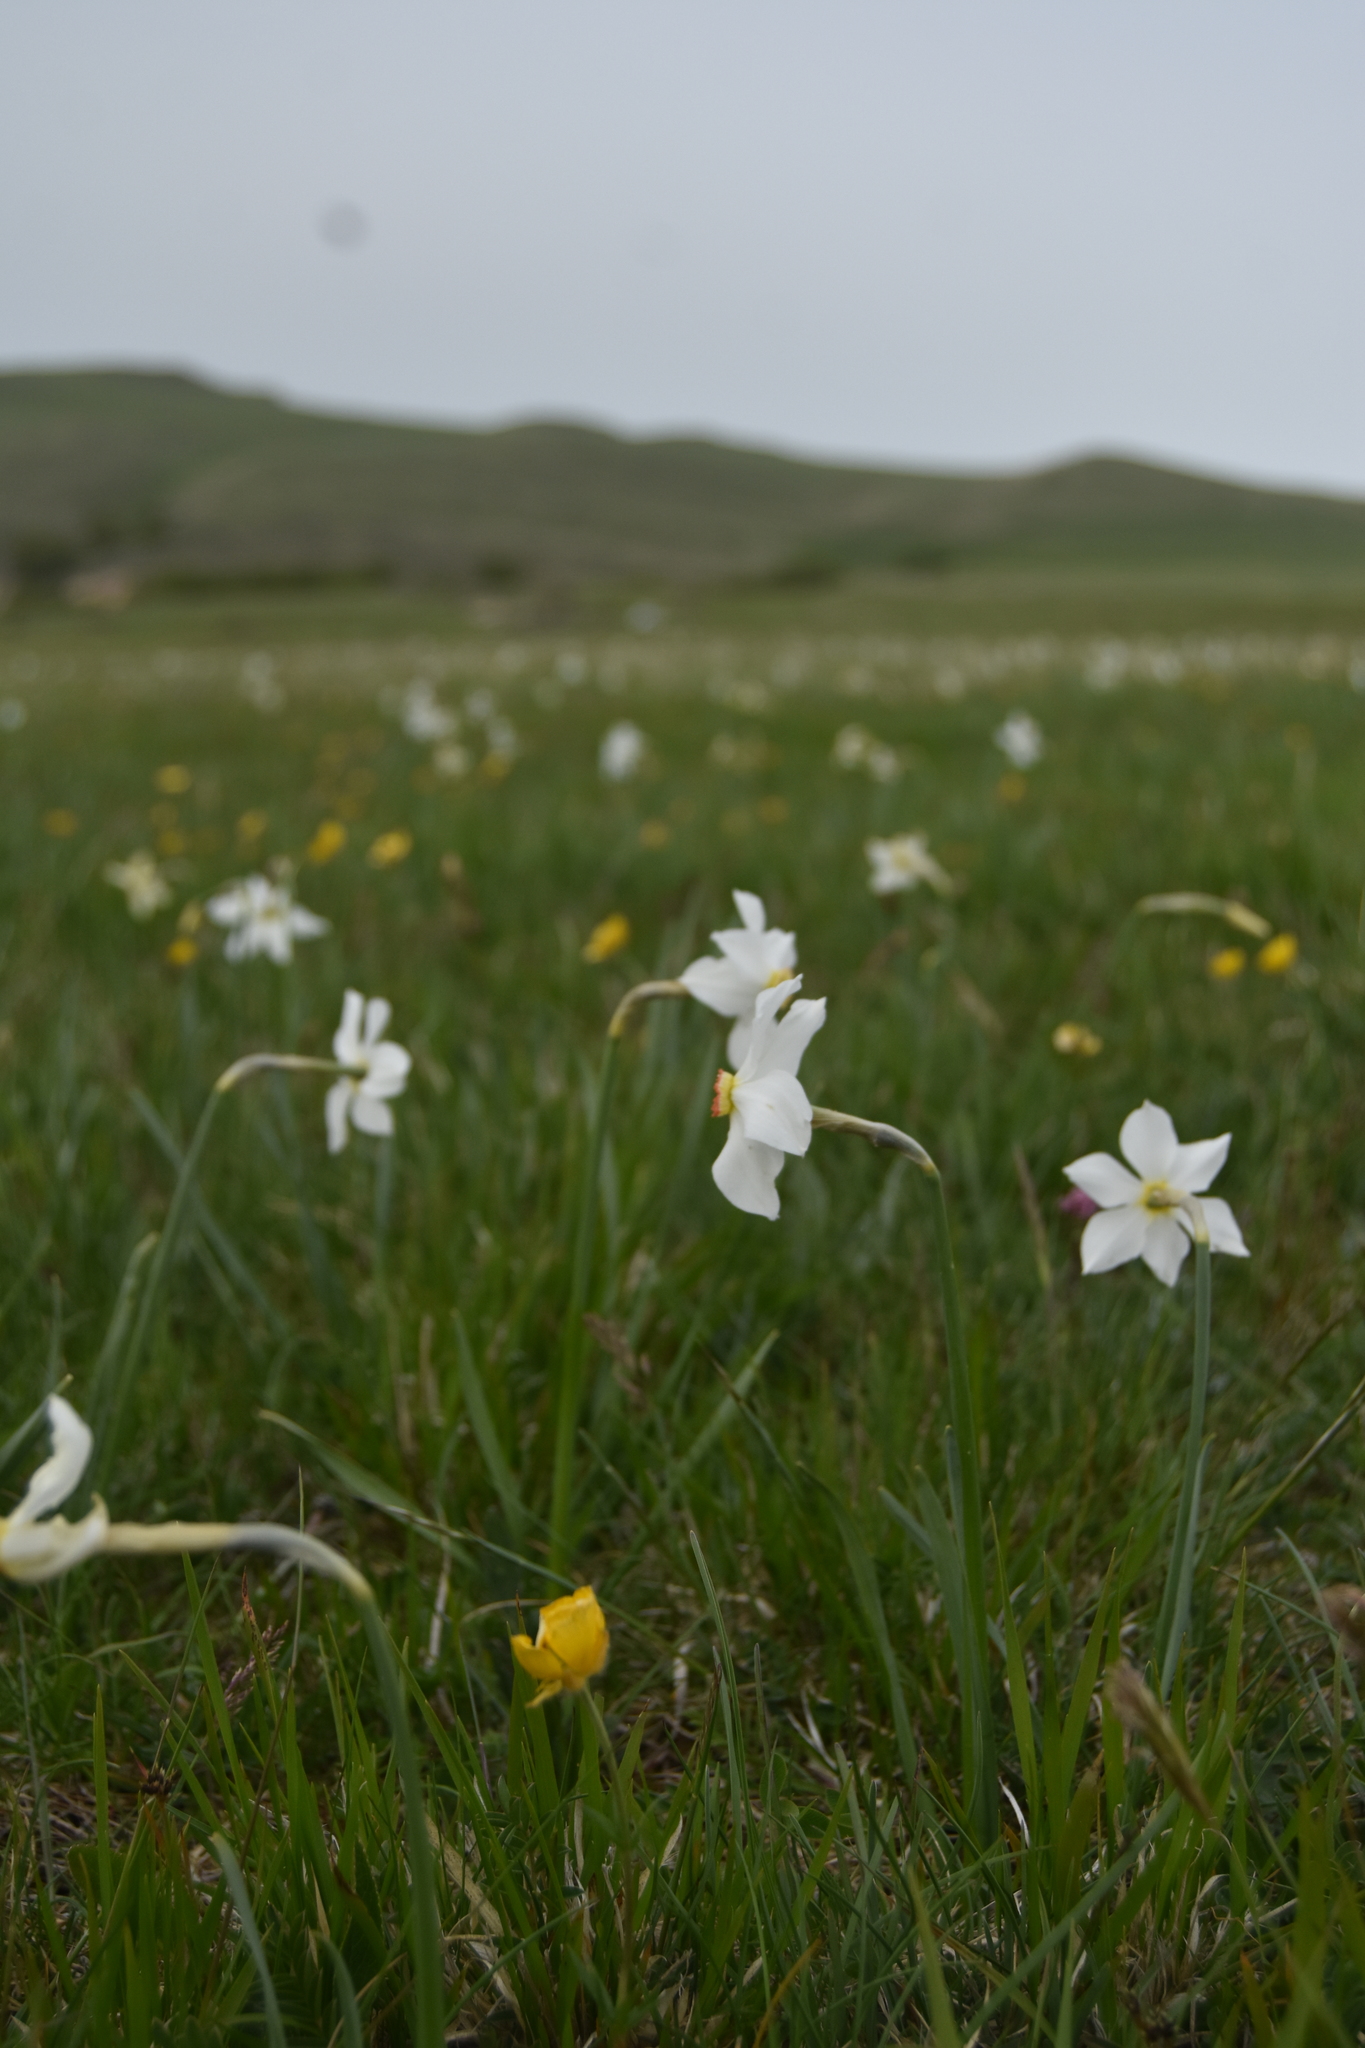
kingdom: Plantae
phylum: Tracheophyta
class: Liliopsida
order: Asparagales
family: Amaryllidaceae
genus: Narcissus
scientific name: Narcissus poeticus
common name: Pheasant's-eye daffodil
